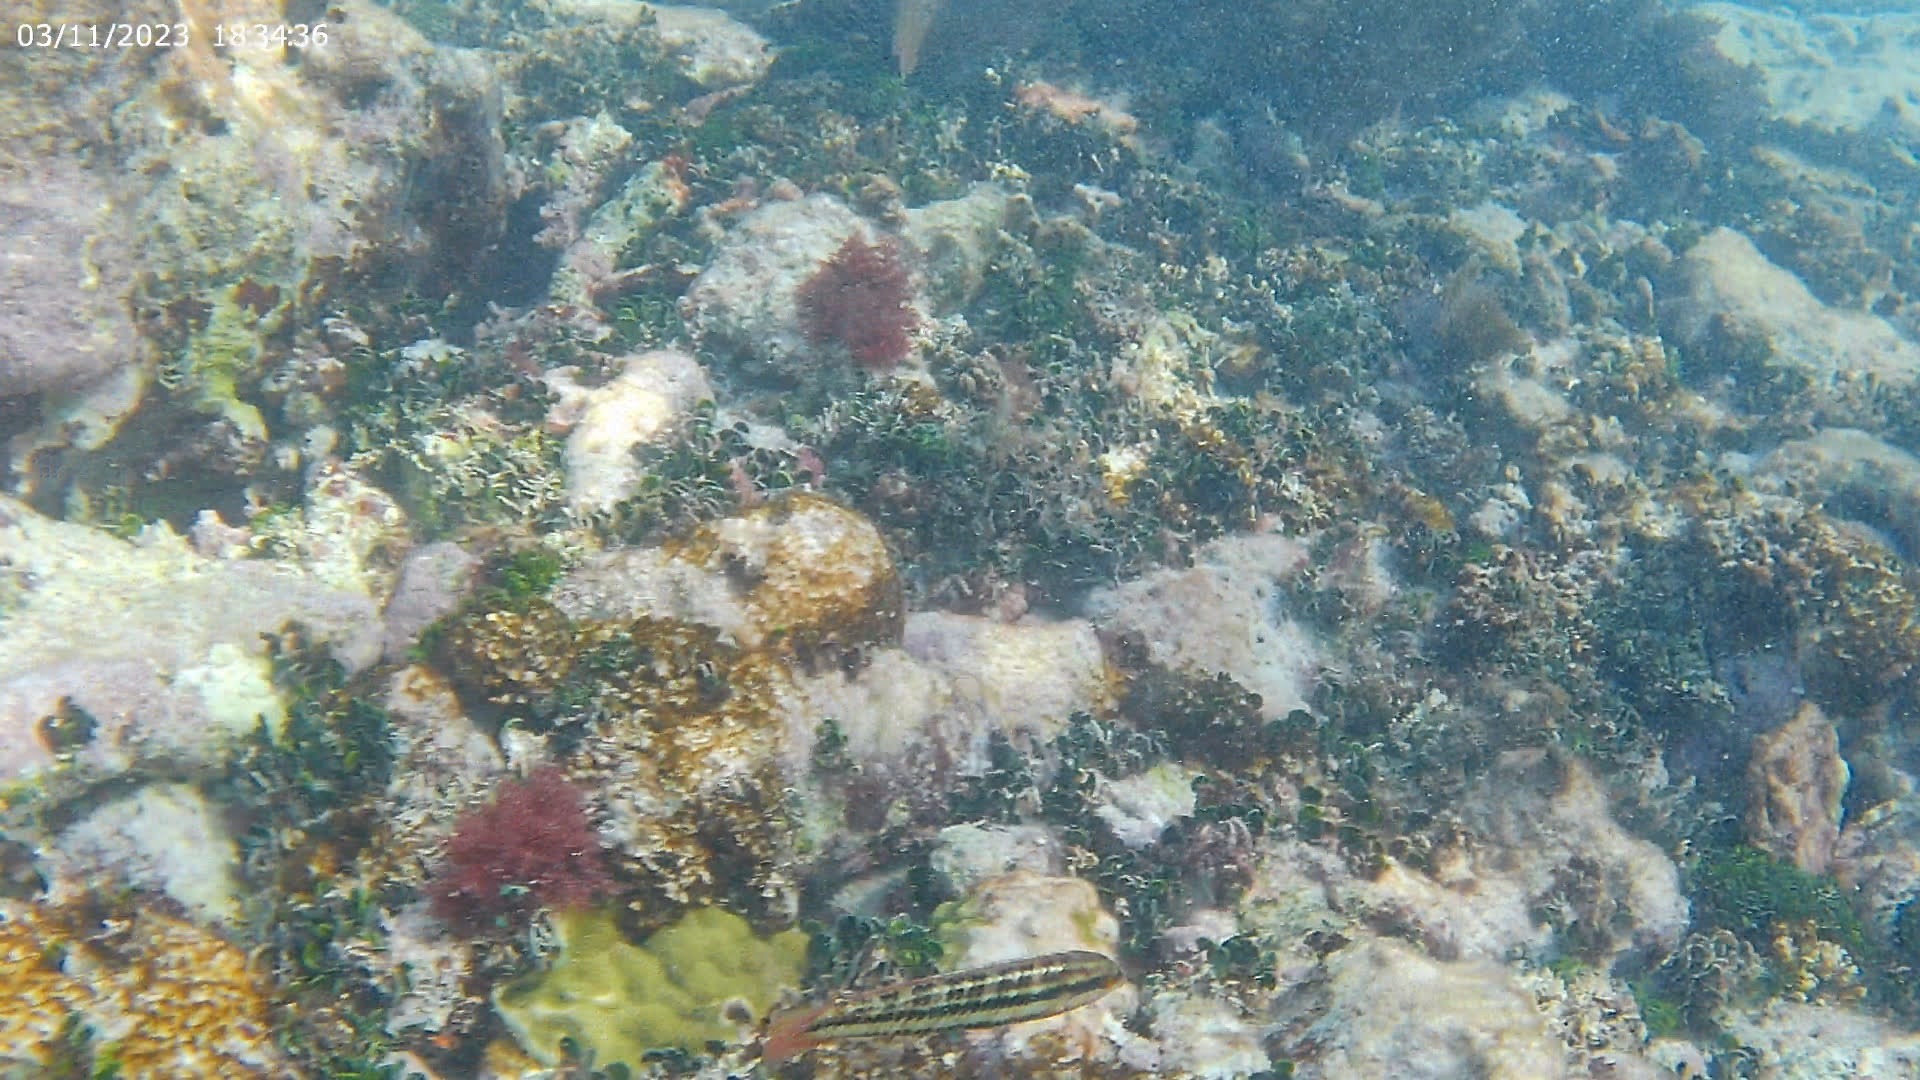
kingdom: Animalia
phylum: Chordata
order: Perciformes
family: Labridae
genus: Halichoeres
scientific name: Halichoeres bivittatus
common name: Slippery dick
